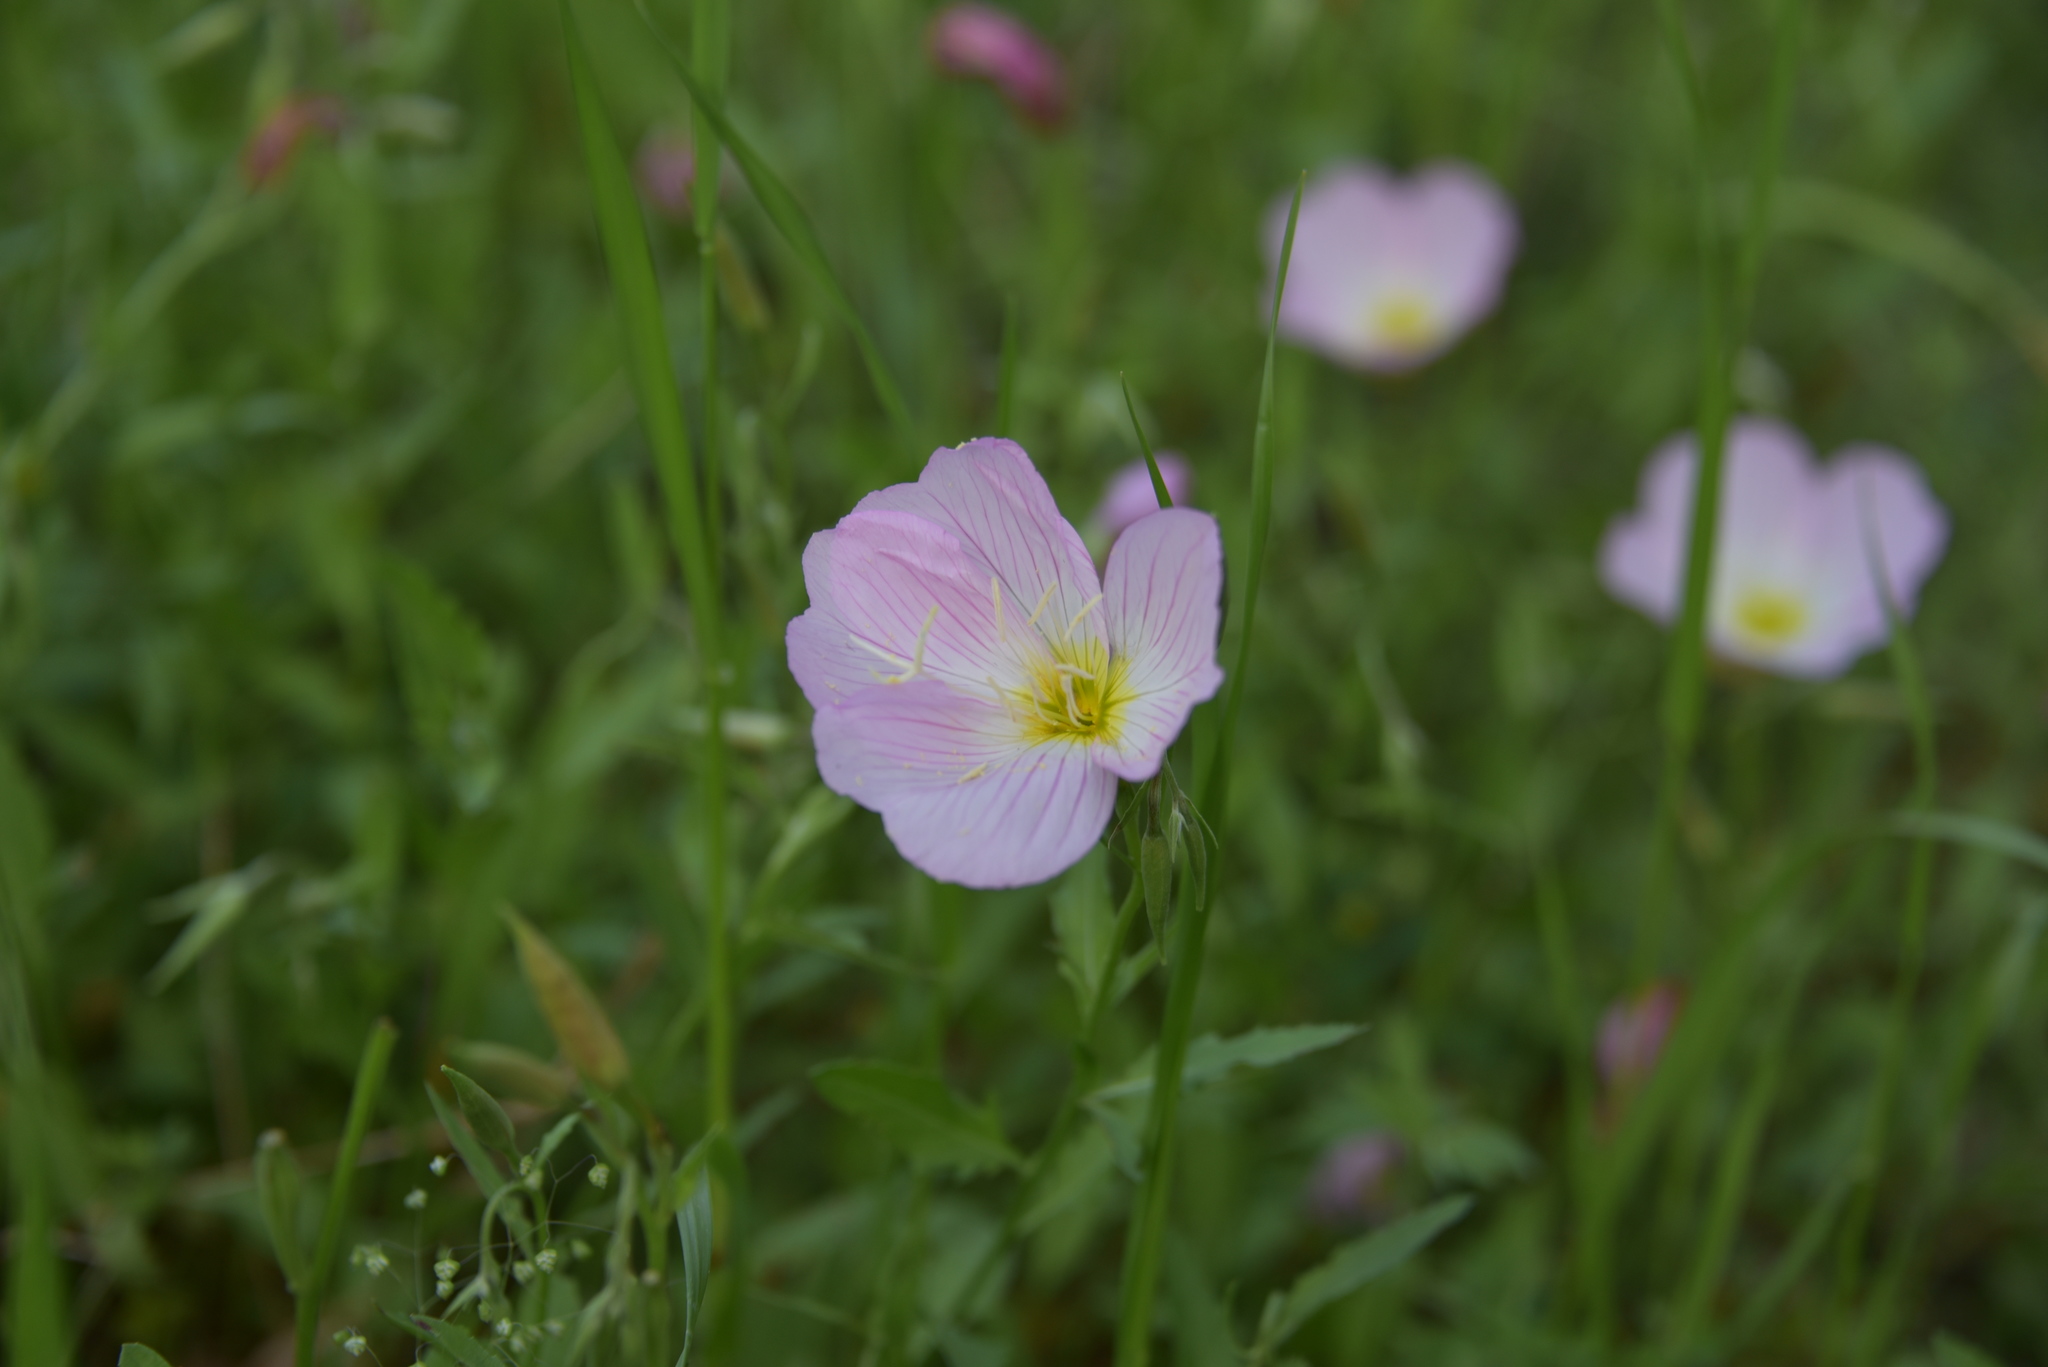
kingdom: Plantae
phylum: Tracheophyta
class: Magnoliopsida
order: Myrtales
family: Onagraceae
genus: Oenothera
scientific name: Oenothera speciosa
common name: White evening-primrose
